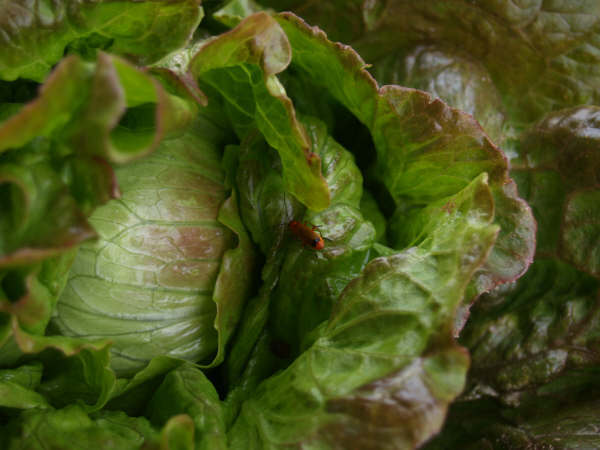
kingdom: Animalia
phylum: Arthropoda
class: Insecta
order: Coleoptera
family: Cantharidae
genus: Rhagonycha
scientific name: Rhagonycha fulva
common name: Common red soldier beetle
